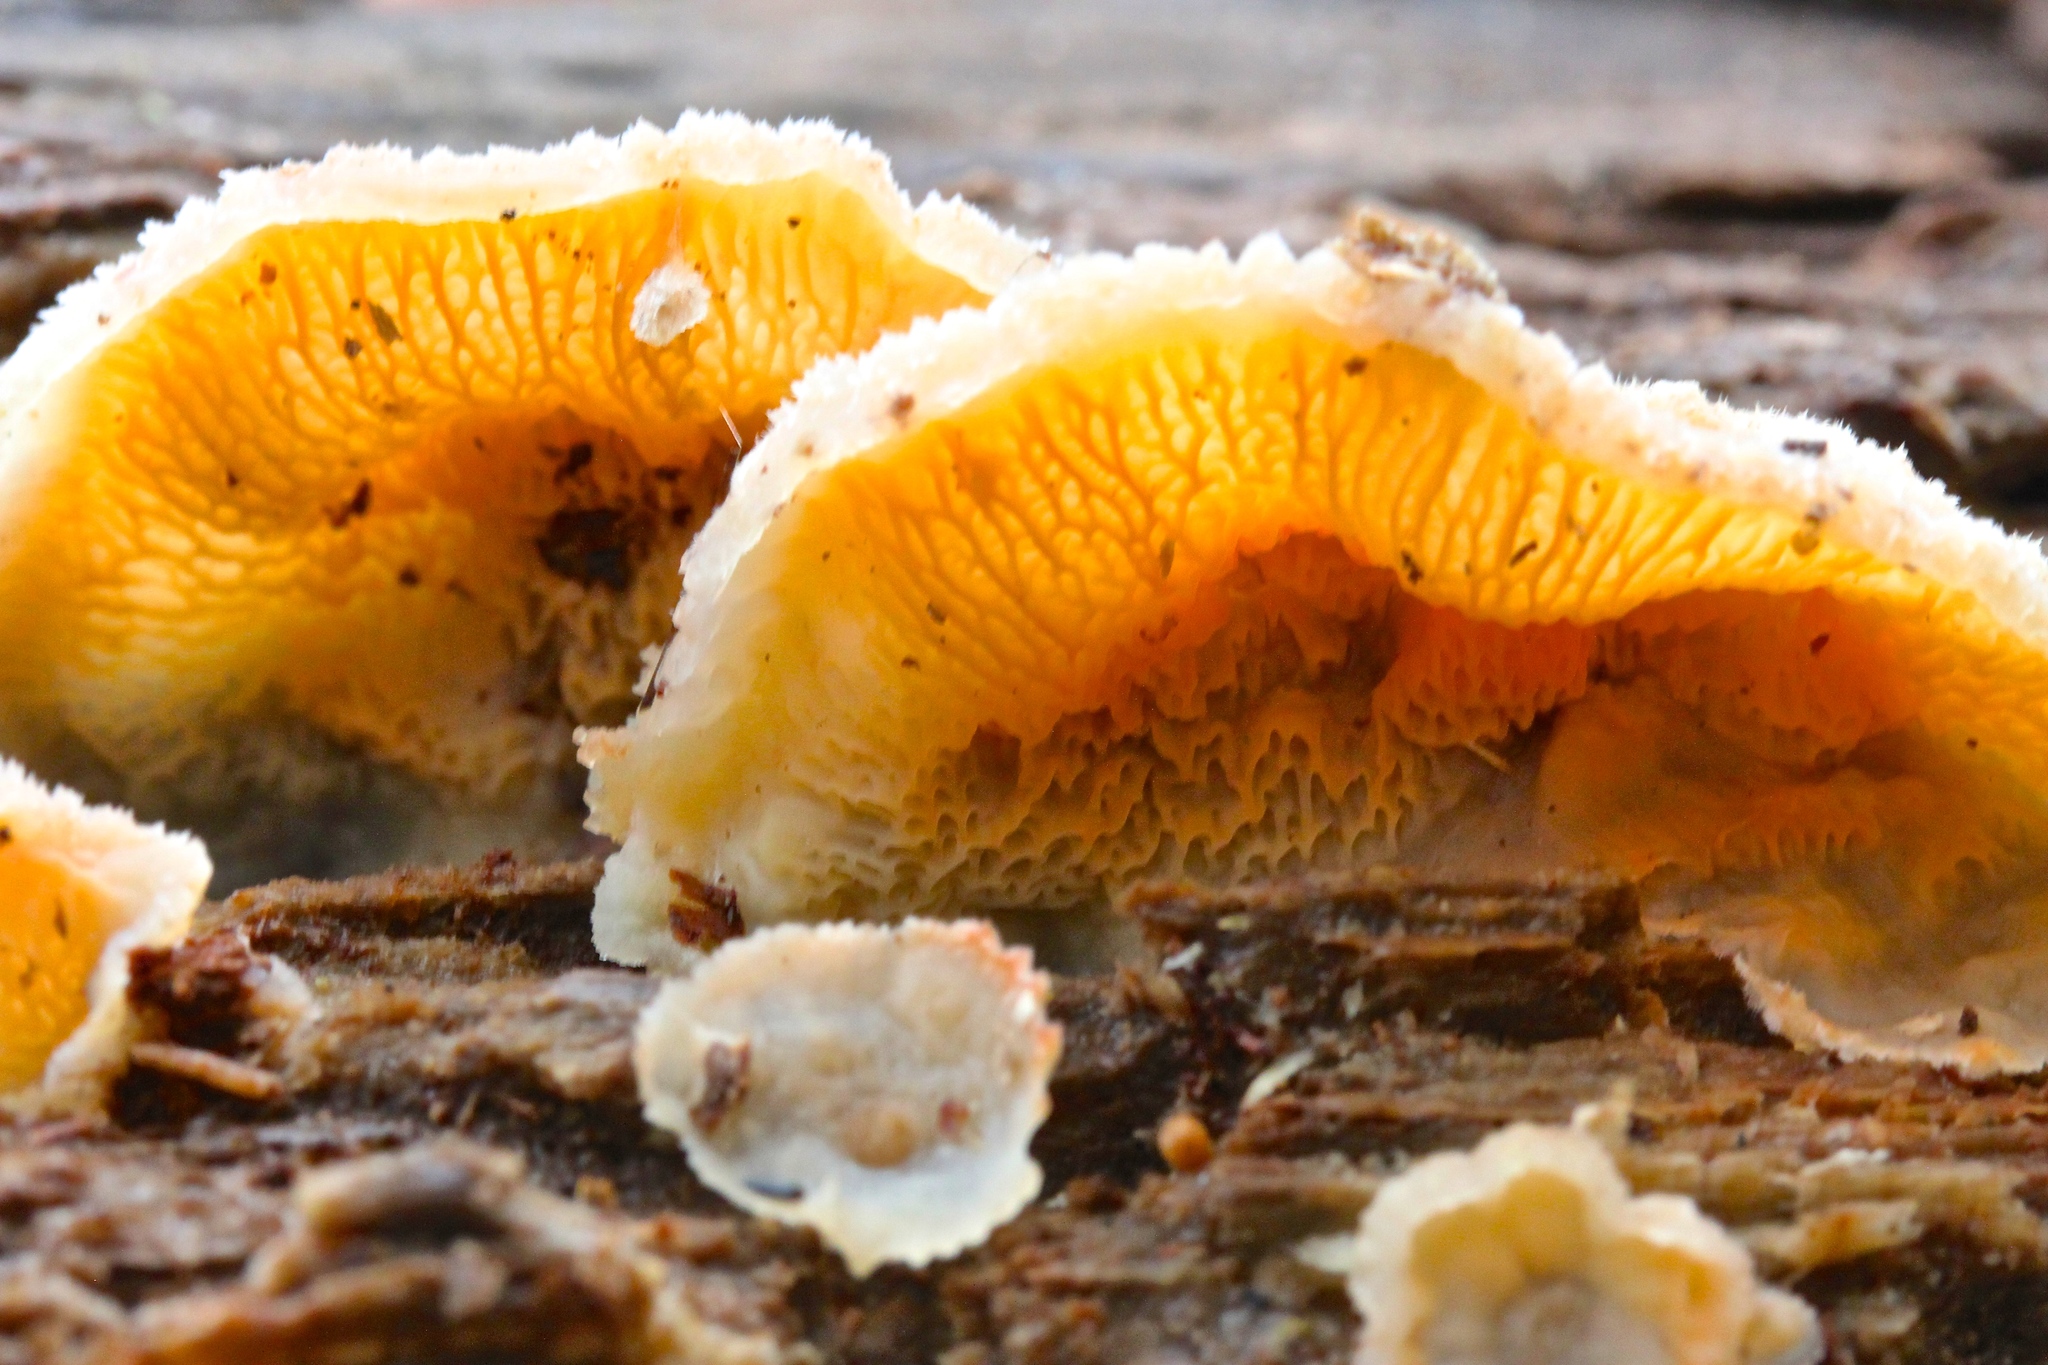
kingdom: Fungi
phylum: Basidiomycota
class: Agaricomycetes
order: Polyporales
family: Meruliaceae
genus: Phlebia
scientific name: Phlebia tremellosa
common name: Jelly rot
